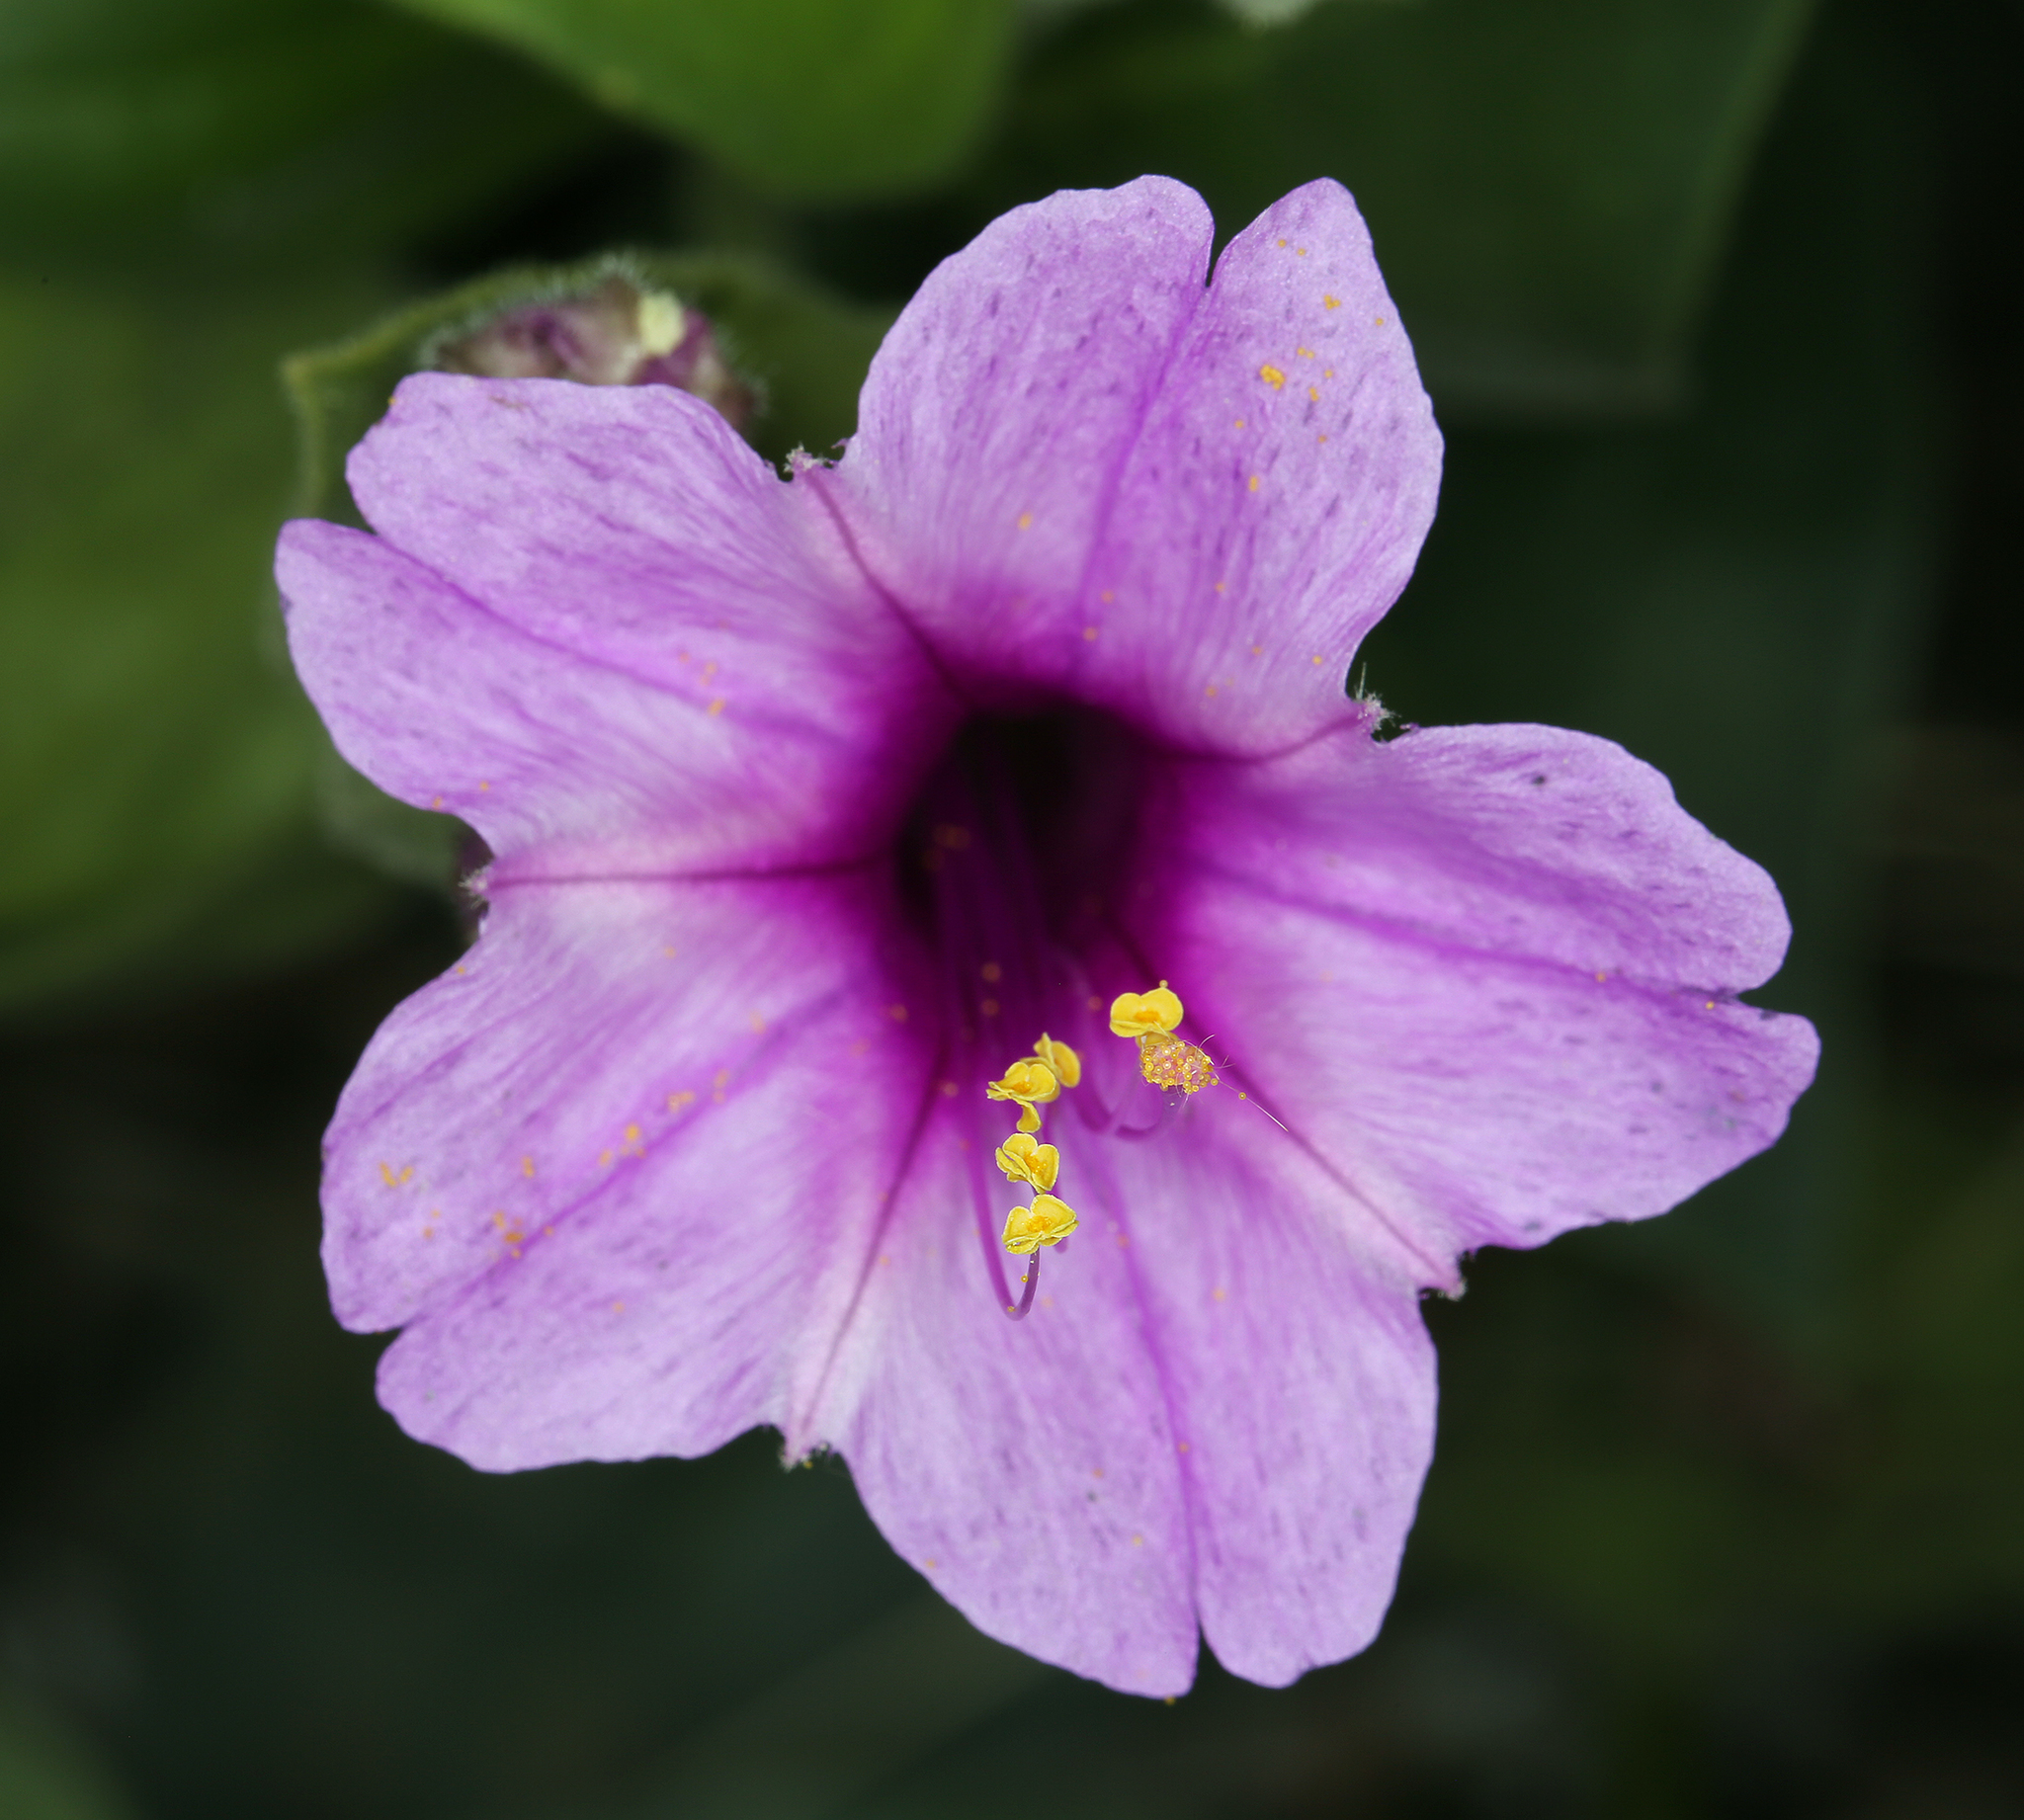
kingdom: Plantae
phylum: Tracheophyta
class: Magnoliopsida
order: Caryophyllales
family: Nyctaginaceae
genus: Mirabilis
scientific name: Mirabilis multiflora
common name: Froebel's four-o'clock
